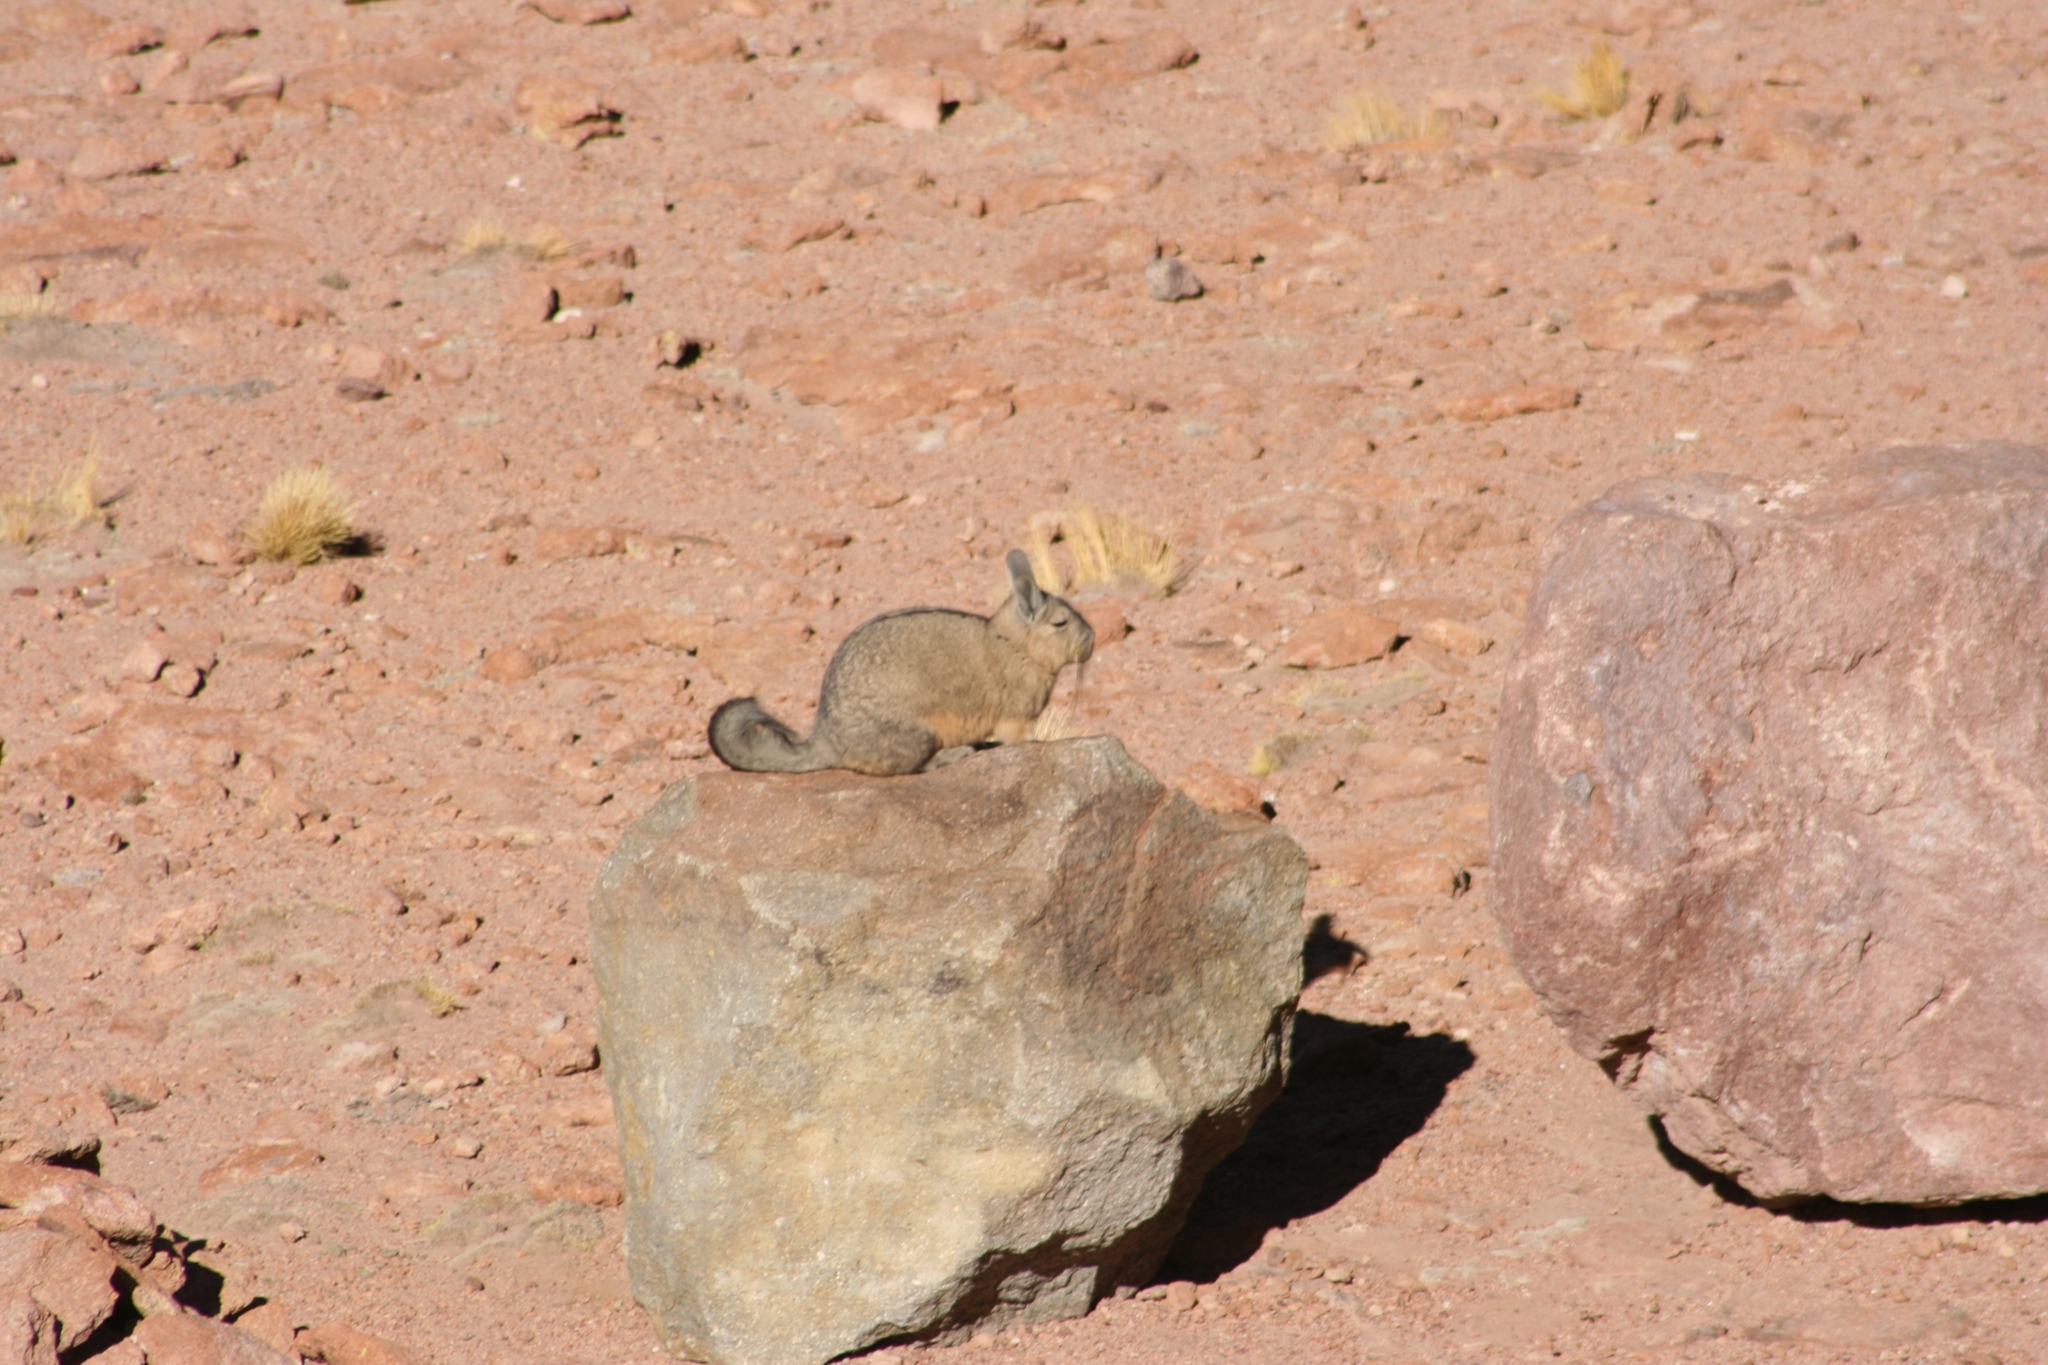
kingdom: Animalia
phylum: Chordata
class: Mammalia
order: Rodentia
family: Chinchillidae
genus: Lagidium
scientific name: Lagidium viscacia
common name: Southern viscacha
